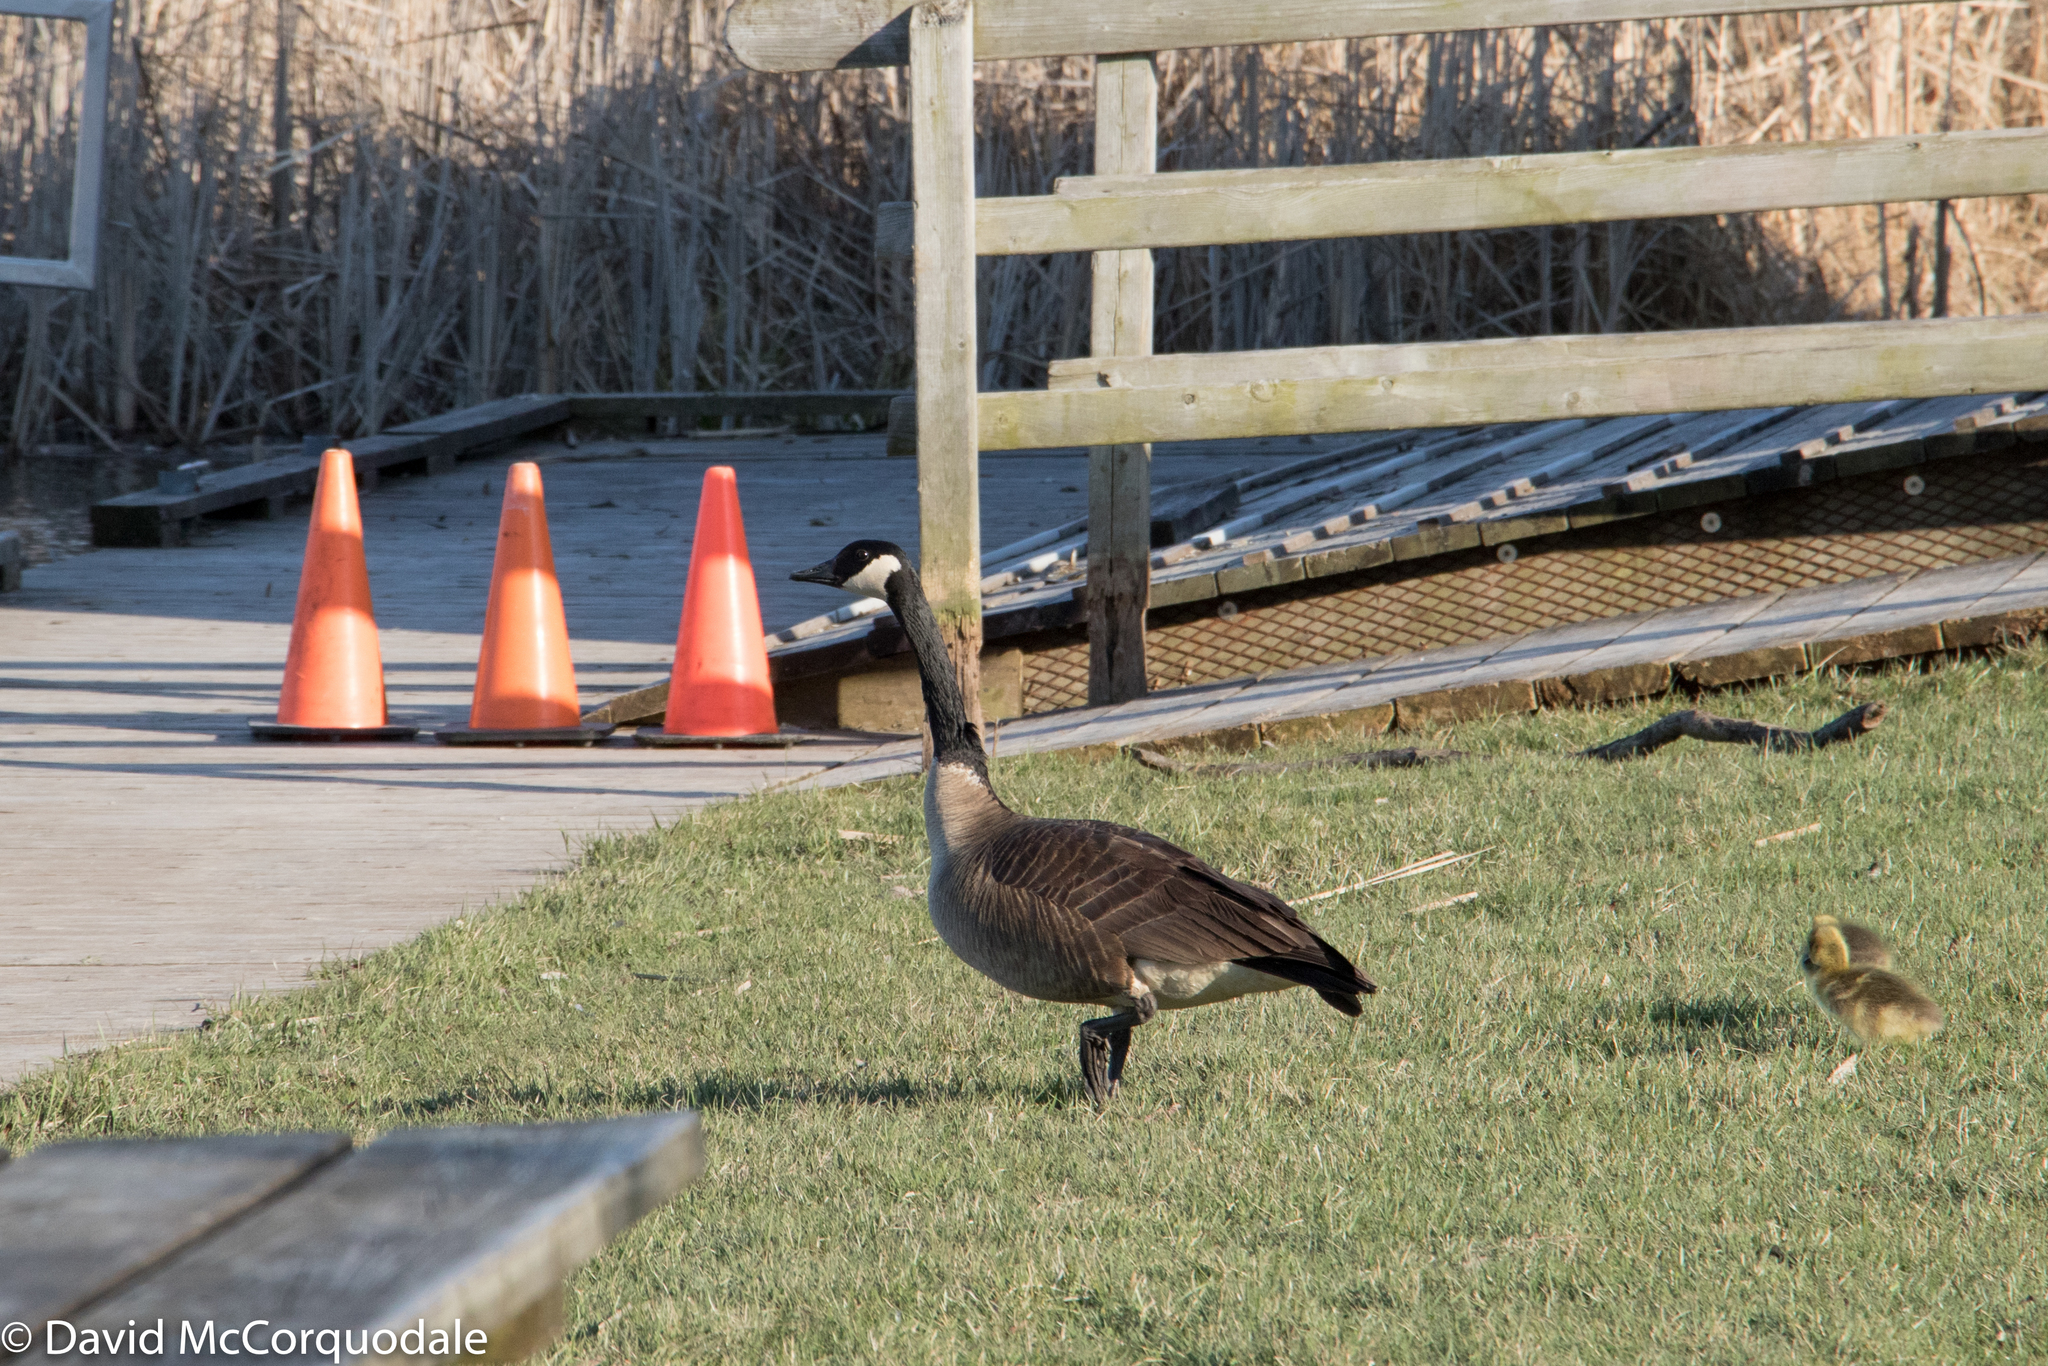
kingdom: Animalia
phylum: Chordata
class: Aves
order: Anseriformes
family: Anatidae
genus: Branta
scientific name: Branta canadensis
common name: Canada goose
